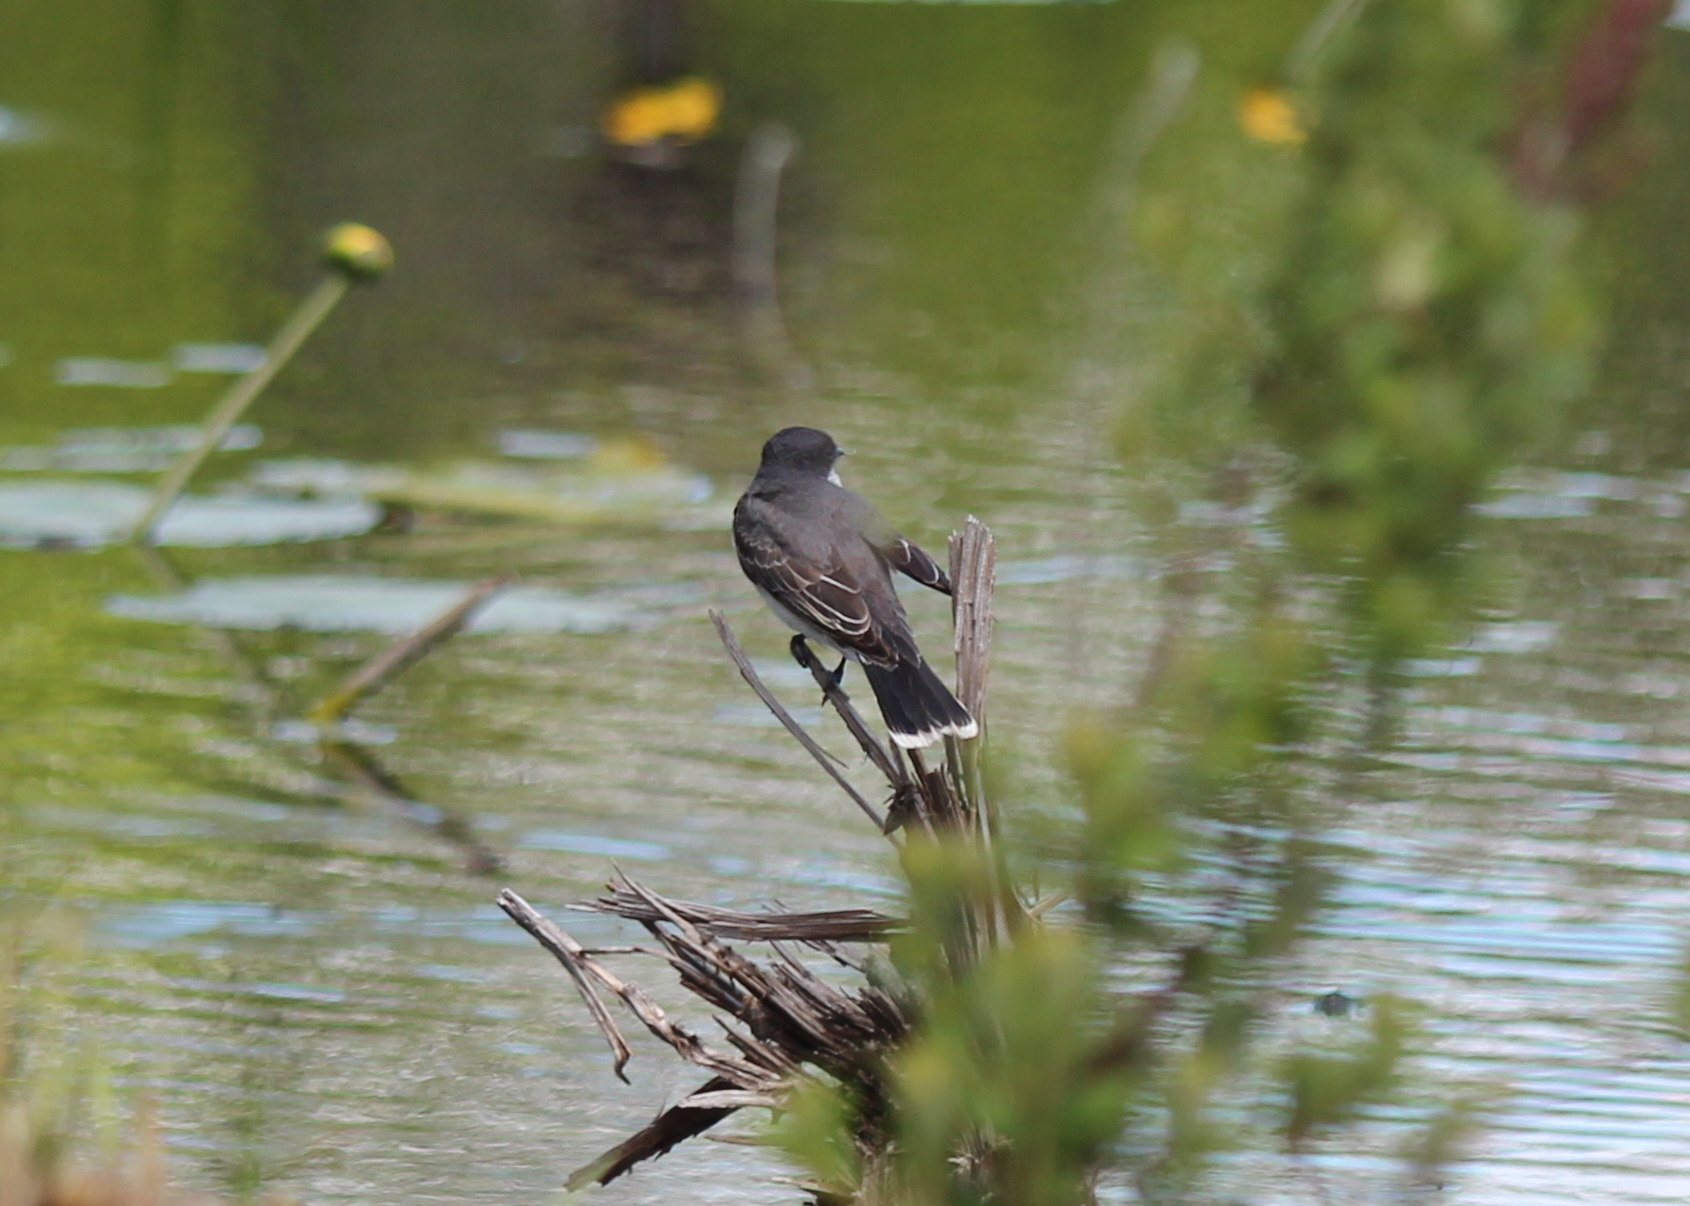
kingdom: Animalia
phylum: Chordata
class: Aves
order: Passeriformes
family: Tyrannidae
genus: Tyrannus
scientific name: Tyrannus tyrannus
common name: Eastern kingbird
